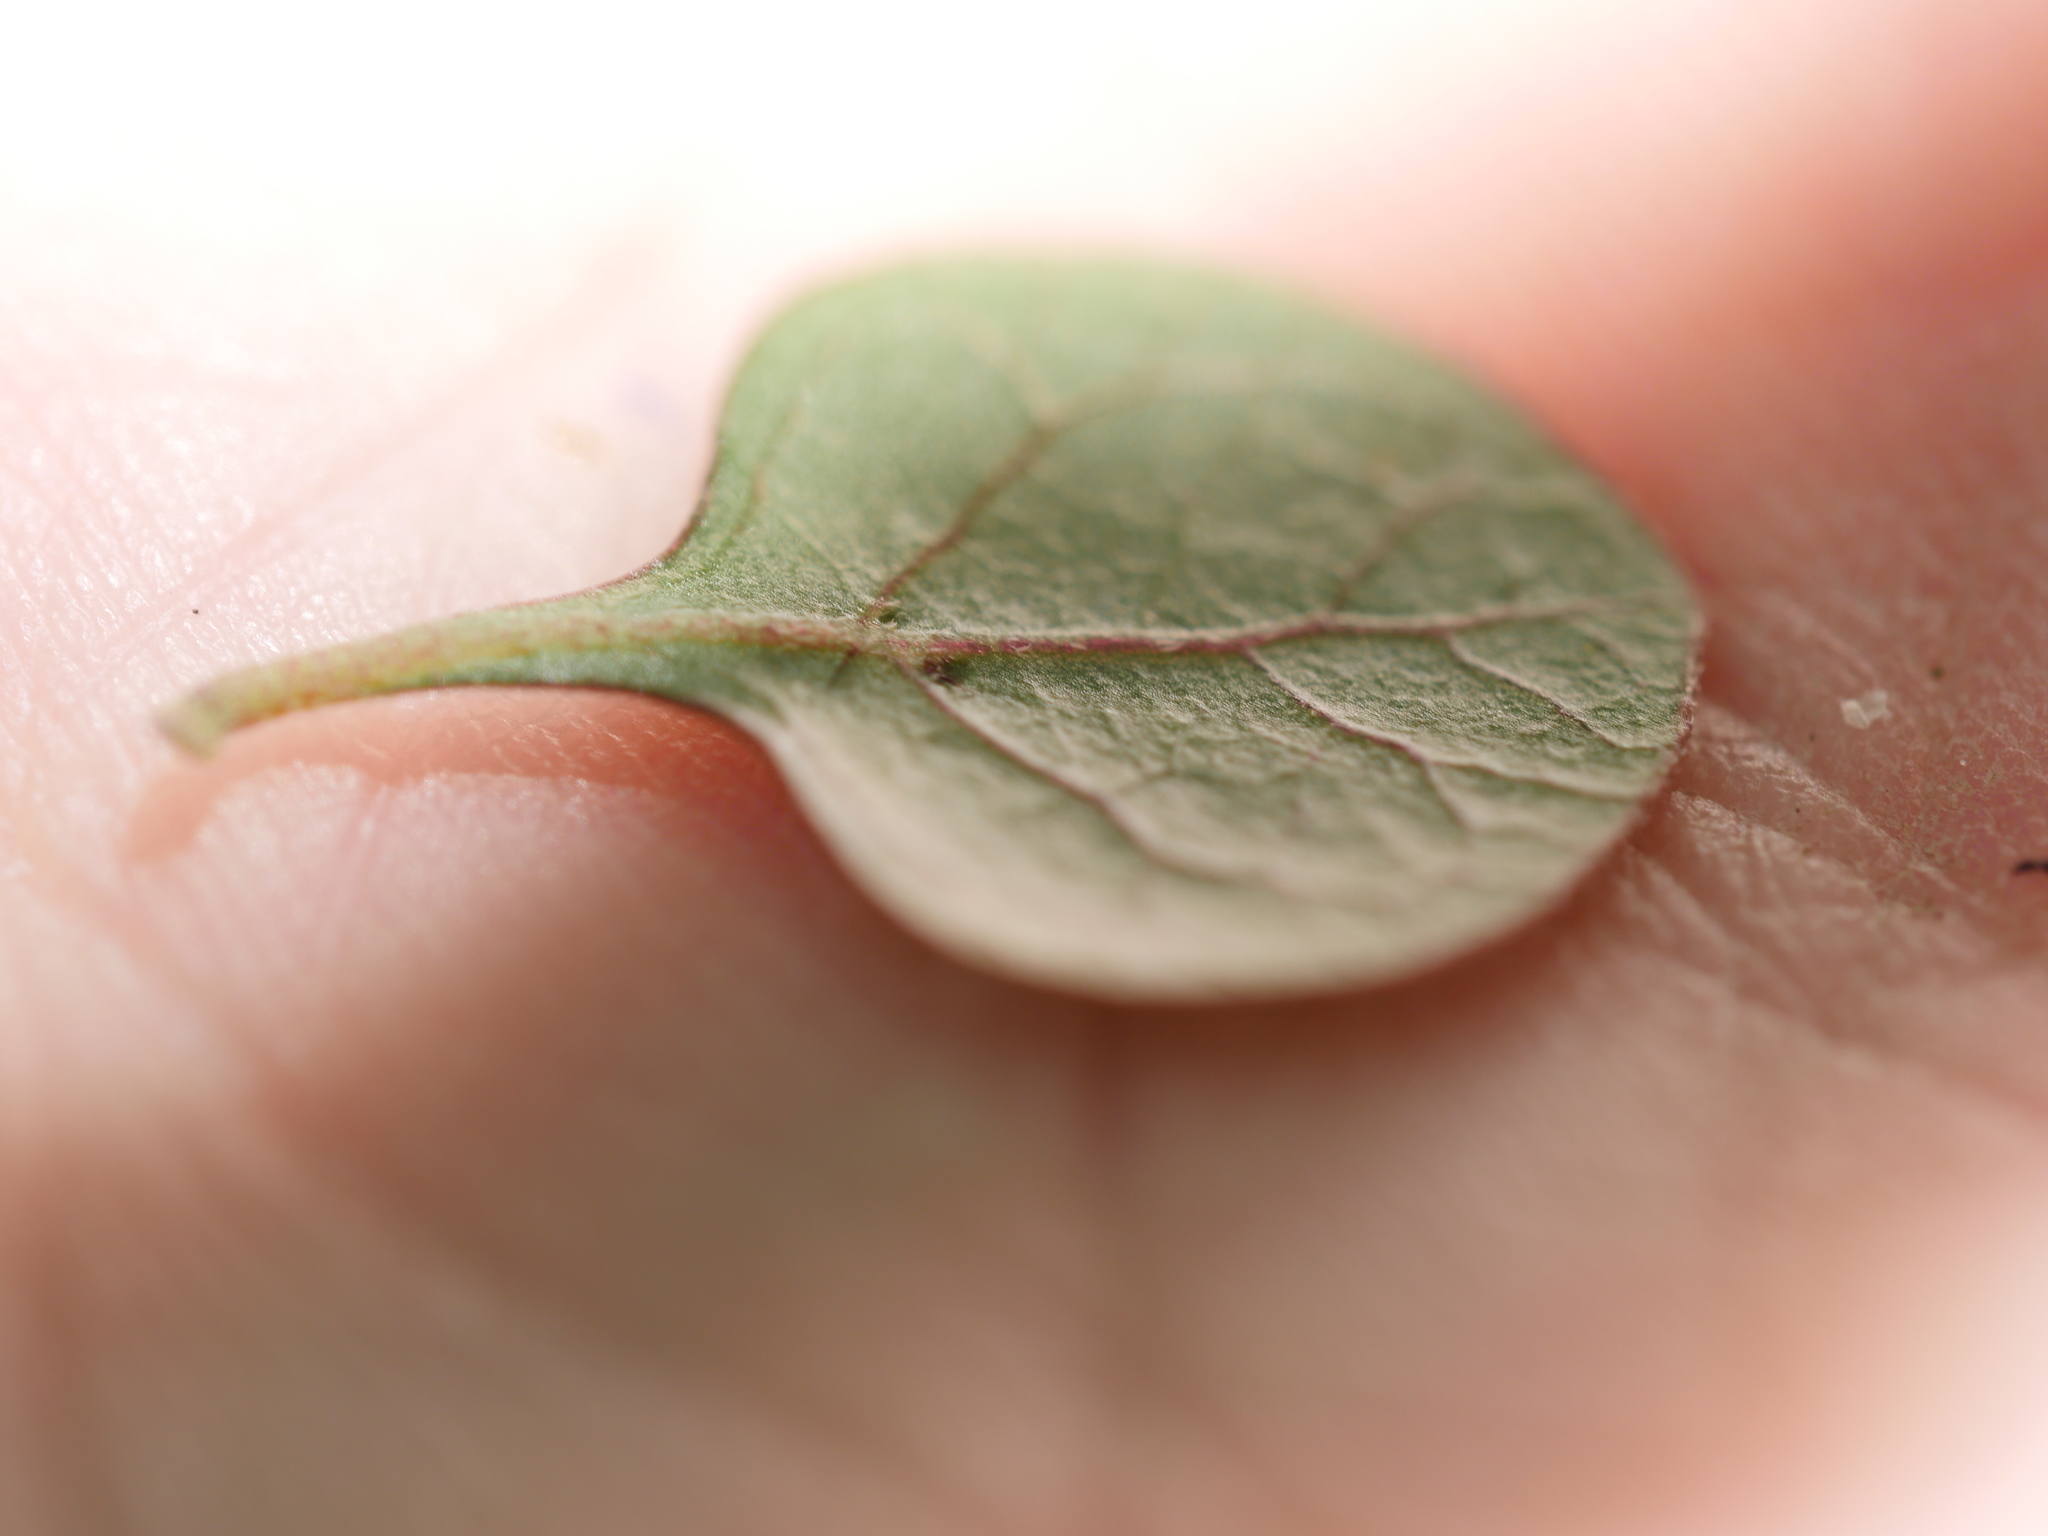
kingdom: Plantae
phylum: Tracheophyta
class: Magnoliopsida
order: Gentianales
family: Rubiaceae
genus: Coprosma
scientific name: Coprosma tenuicaulis
